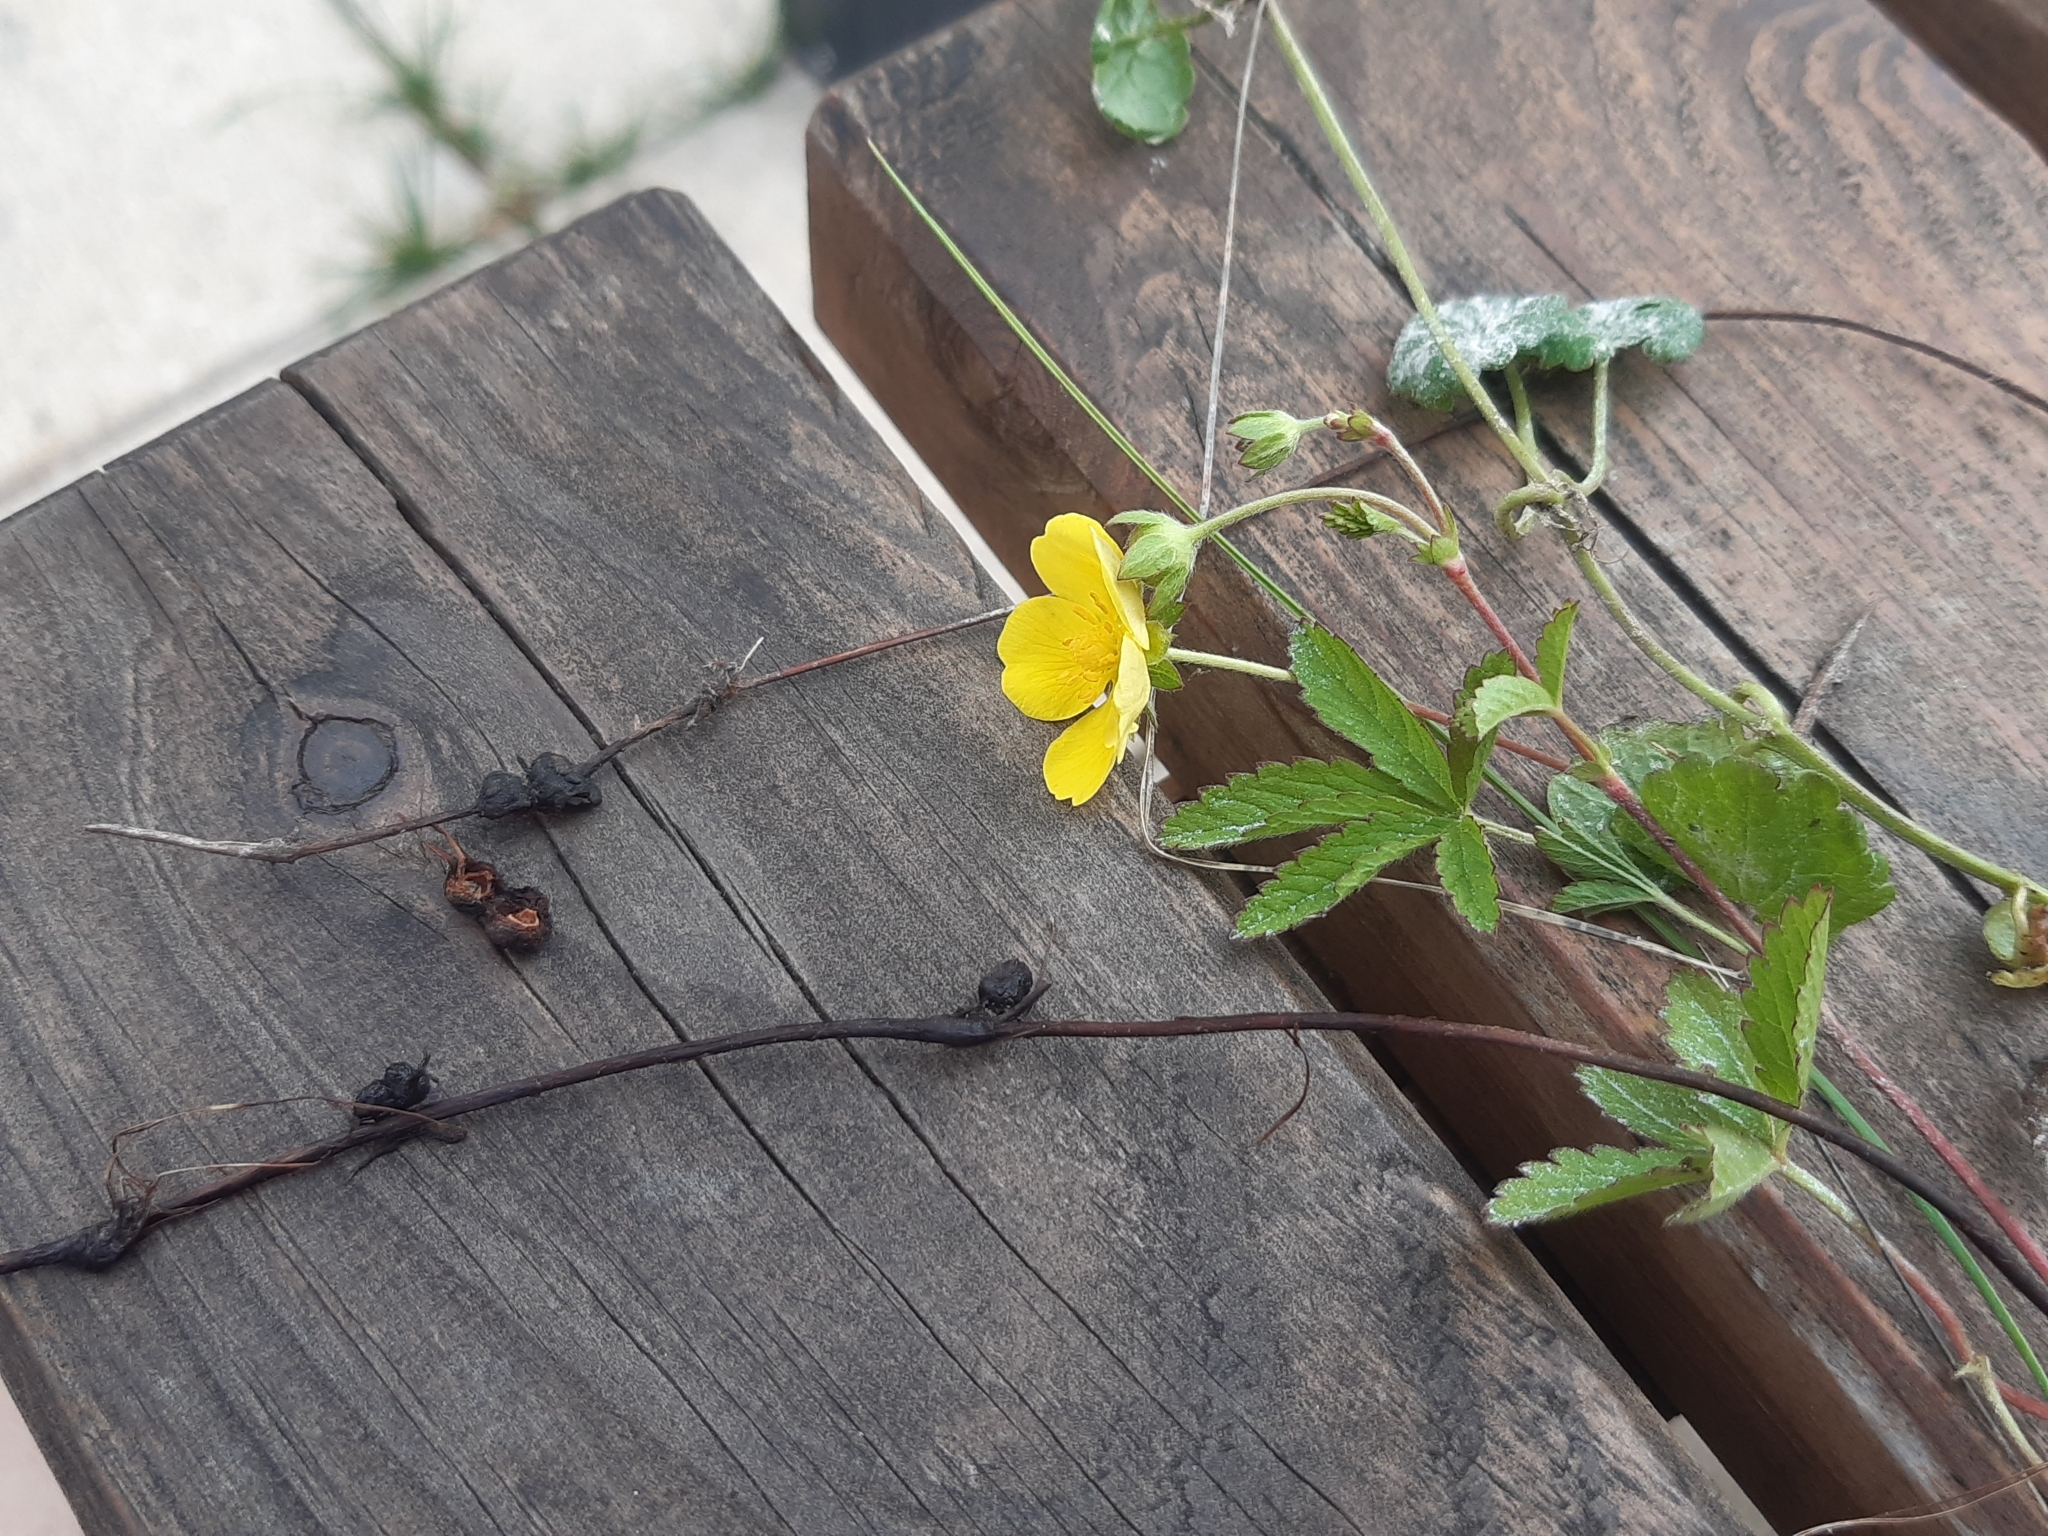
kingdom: Animalia
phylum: Arthropoda
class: Insecta
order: Hymenoptera
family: Cynipidae
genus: Xestophanes
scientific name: Xestophanes potentillae
